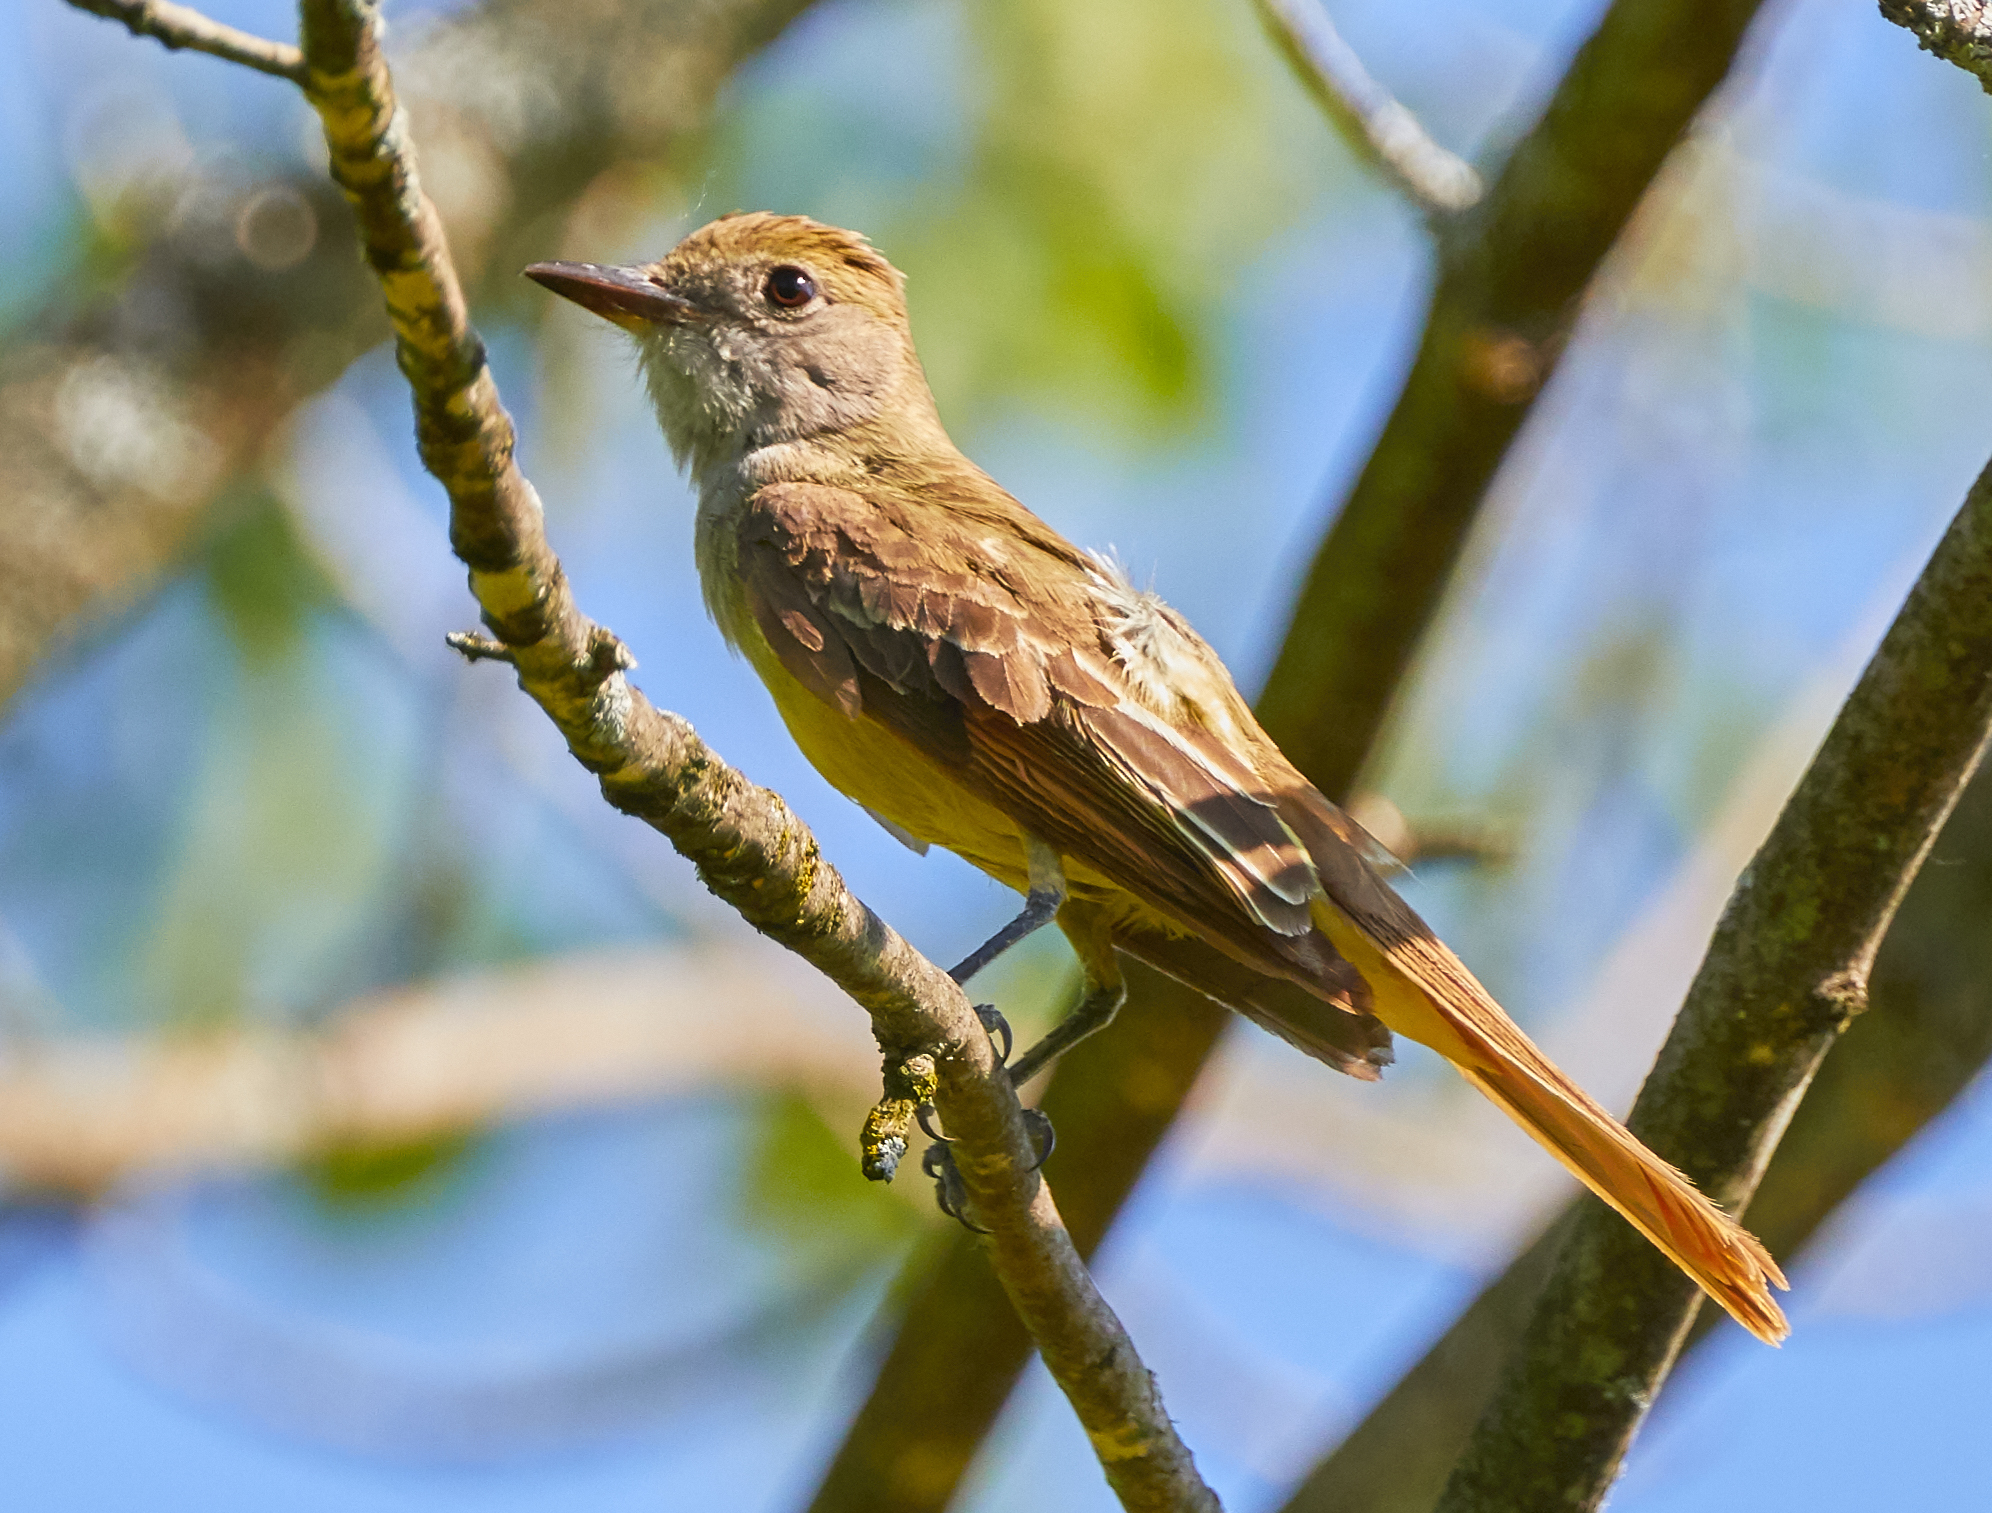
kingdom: Animalia
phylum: Chordata
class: Aves
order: Passeriformes
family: Tyrannidae
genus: Myiarchus
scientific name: Myiarchus crinitus
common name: Great crested flycatcher
